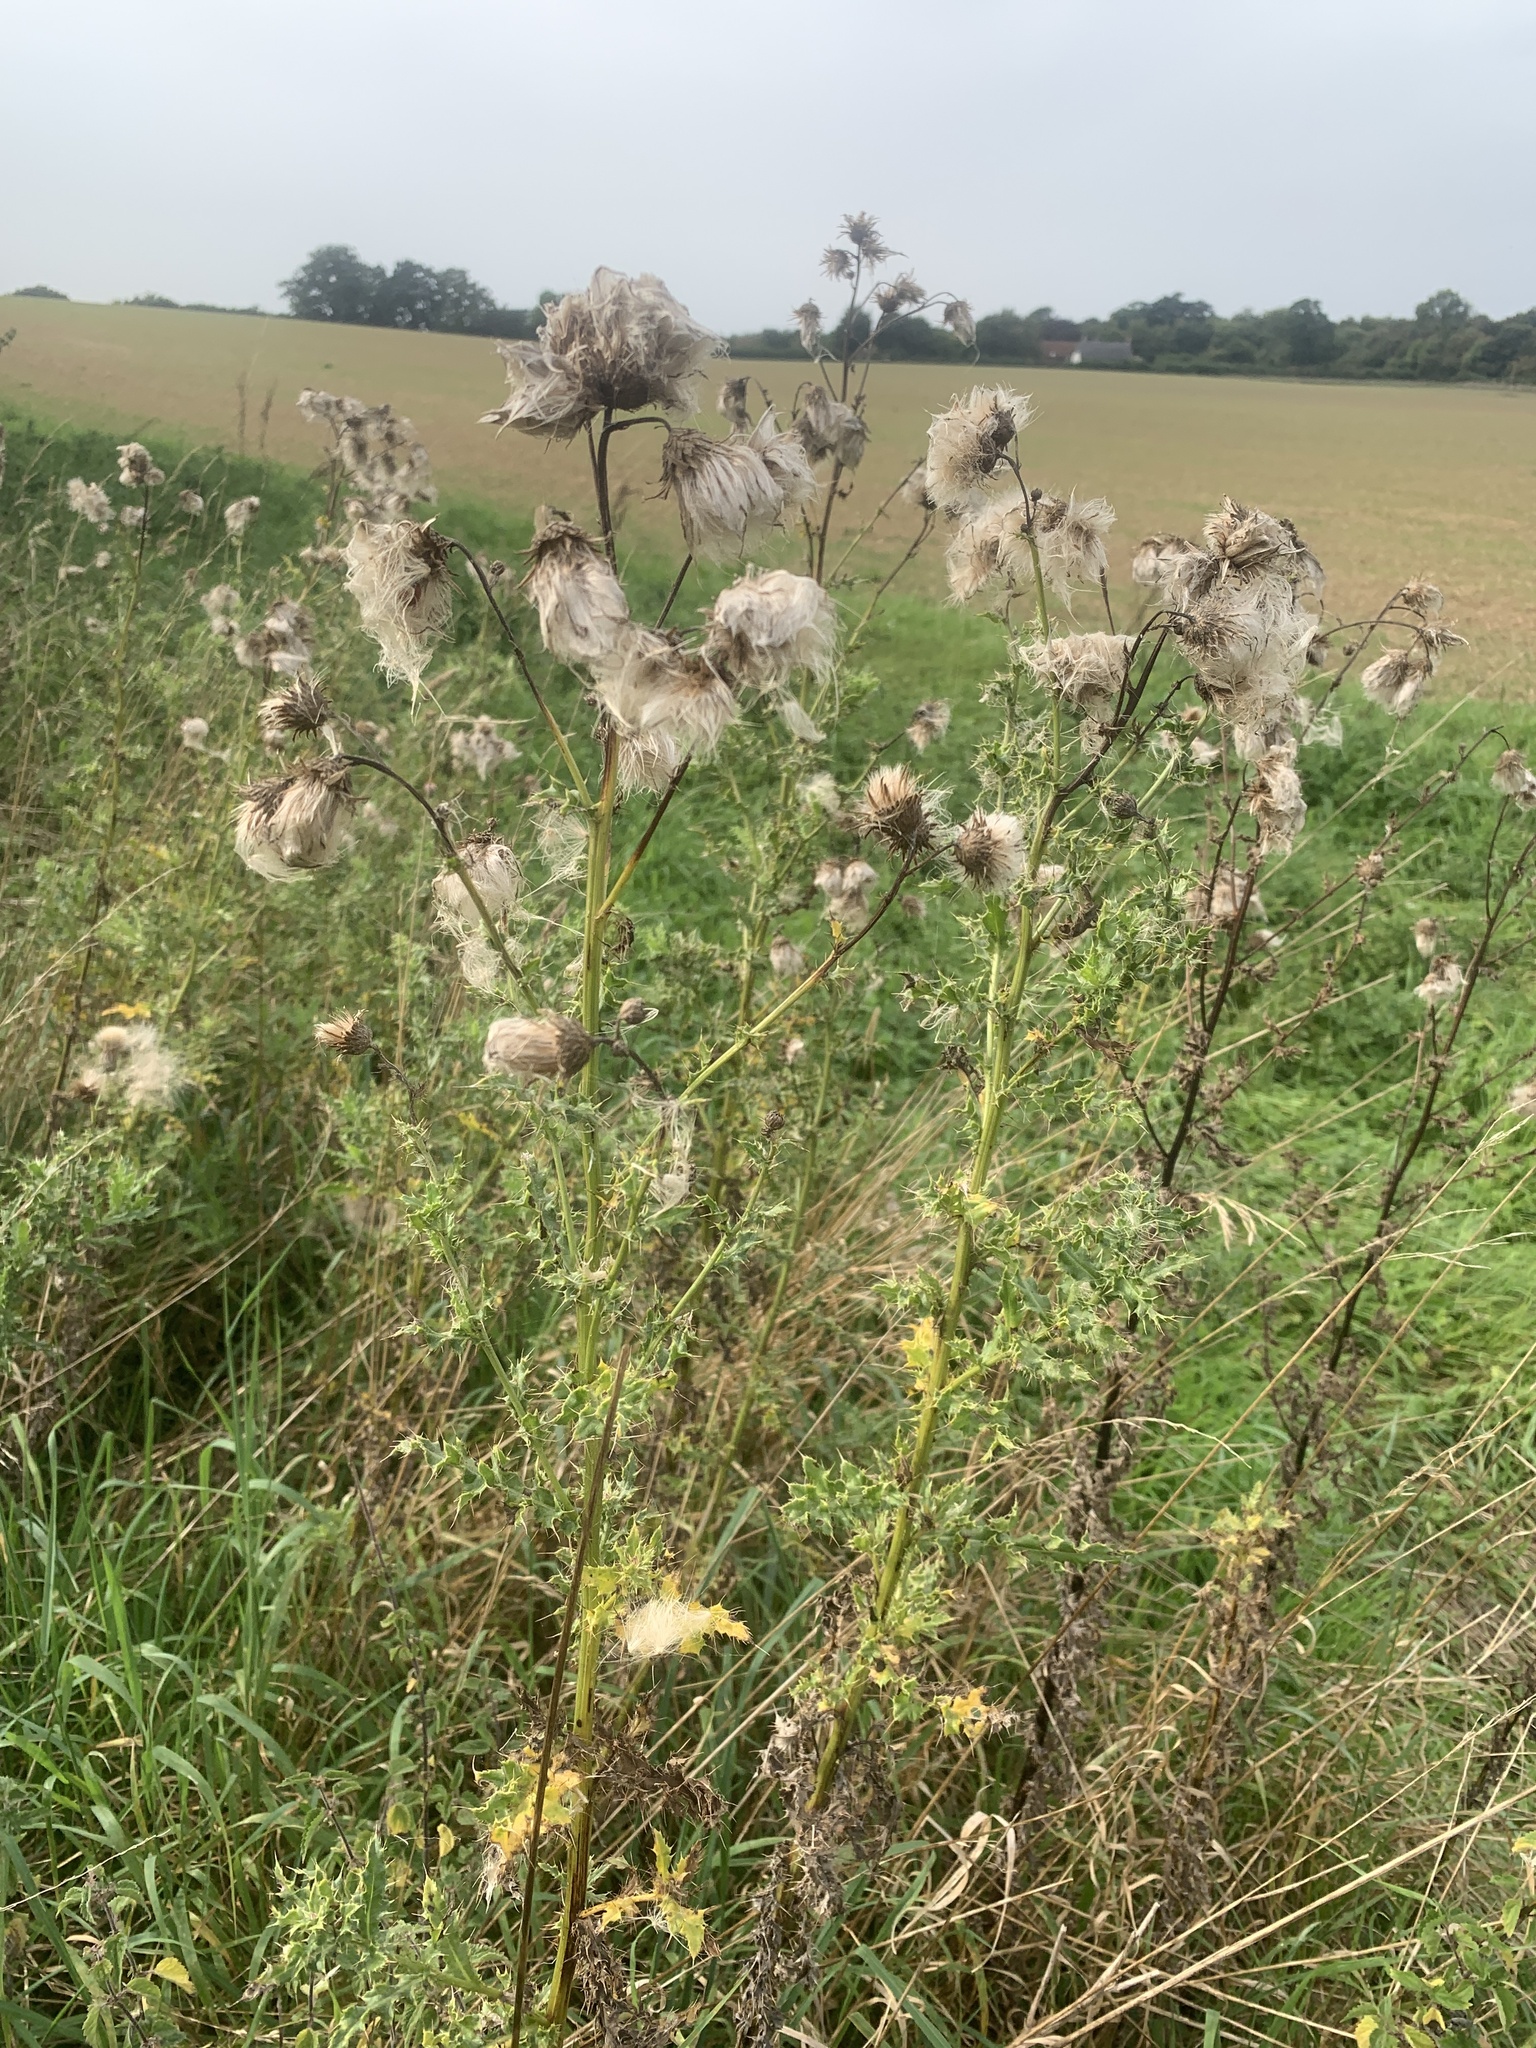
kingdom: Plantae
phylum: Tracheophyta
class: Magnoliopsida
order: Asterales
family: Asteraceae
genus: Cirsium
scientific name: Cirsium arvense
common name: Creeping thistle
